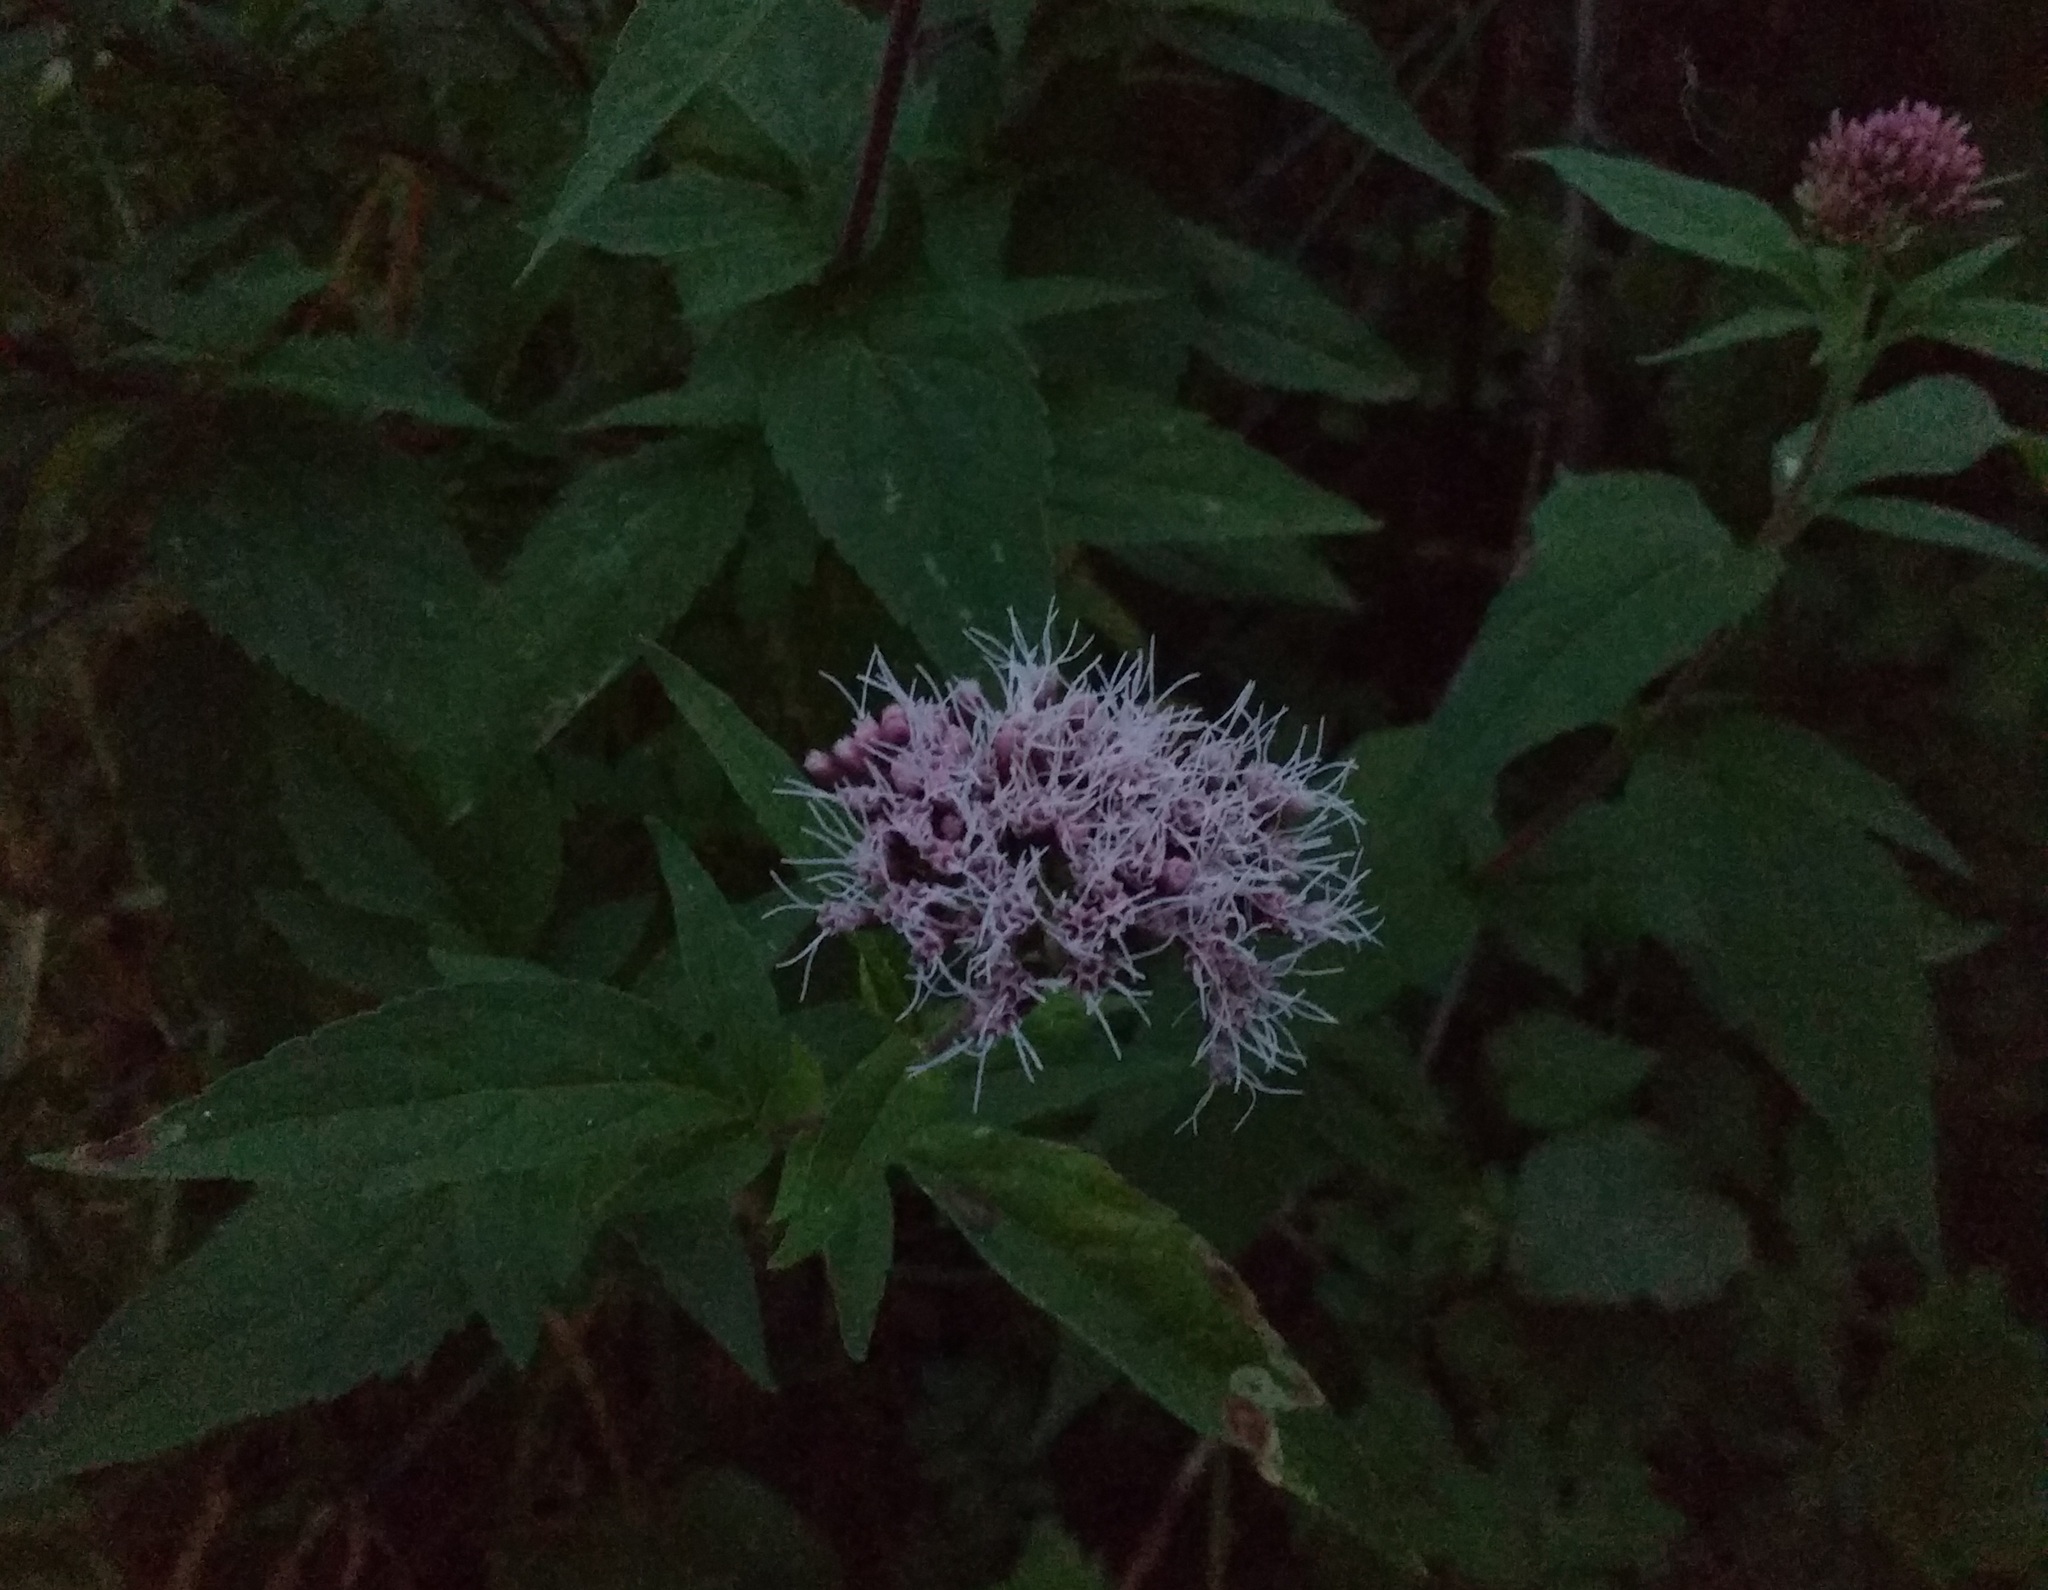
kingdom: Plantae
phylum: Tracheophyta
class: Magnoliopsida
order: Asterales
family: Asteraceae
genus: Eupatorium
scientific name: Eupatorium cannabinum
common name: Hemp-agrimony
